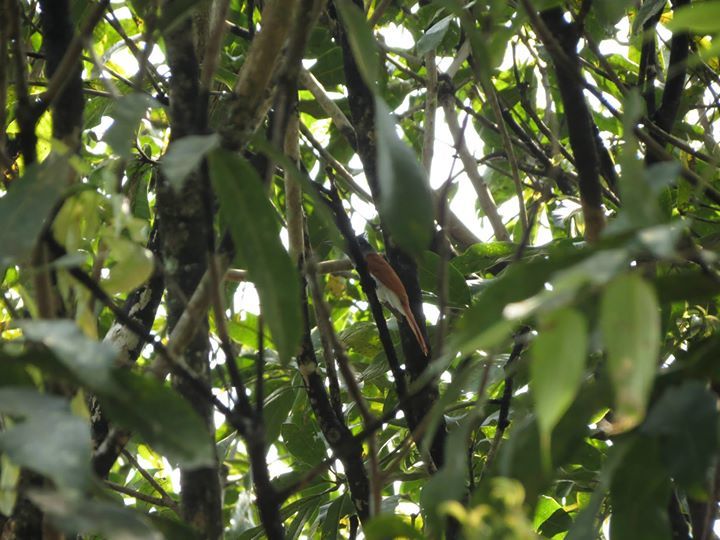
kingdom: Animalia
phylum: Chordata
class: Aves
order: Passeriformes
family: Monarchidae
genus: Terpsiphone
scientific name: Terpsiphone paradisi
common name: Indian paradise flycatcher
